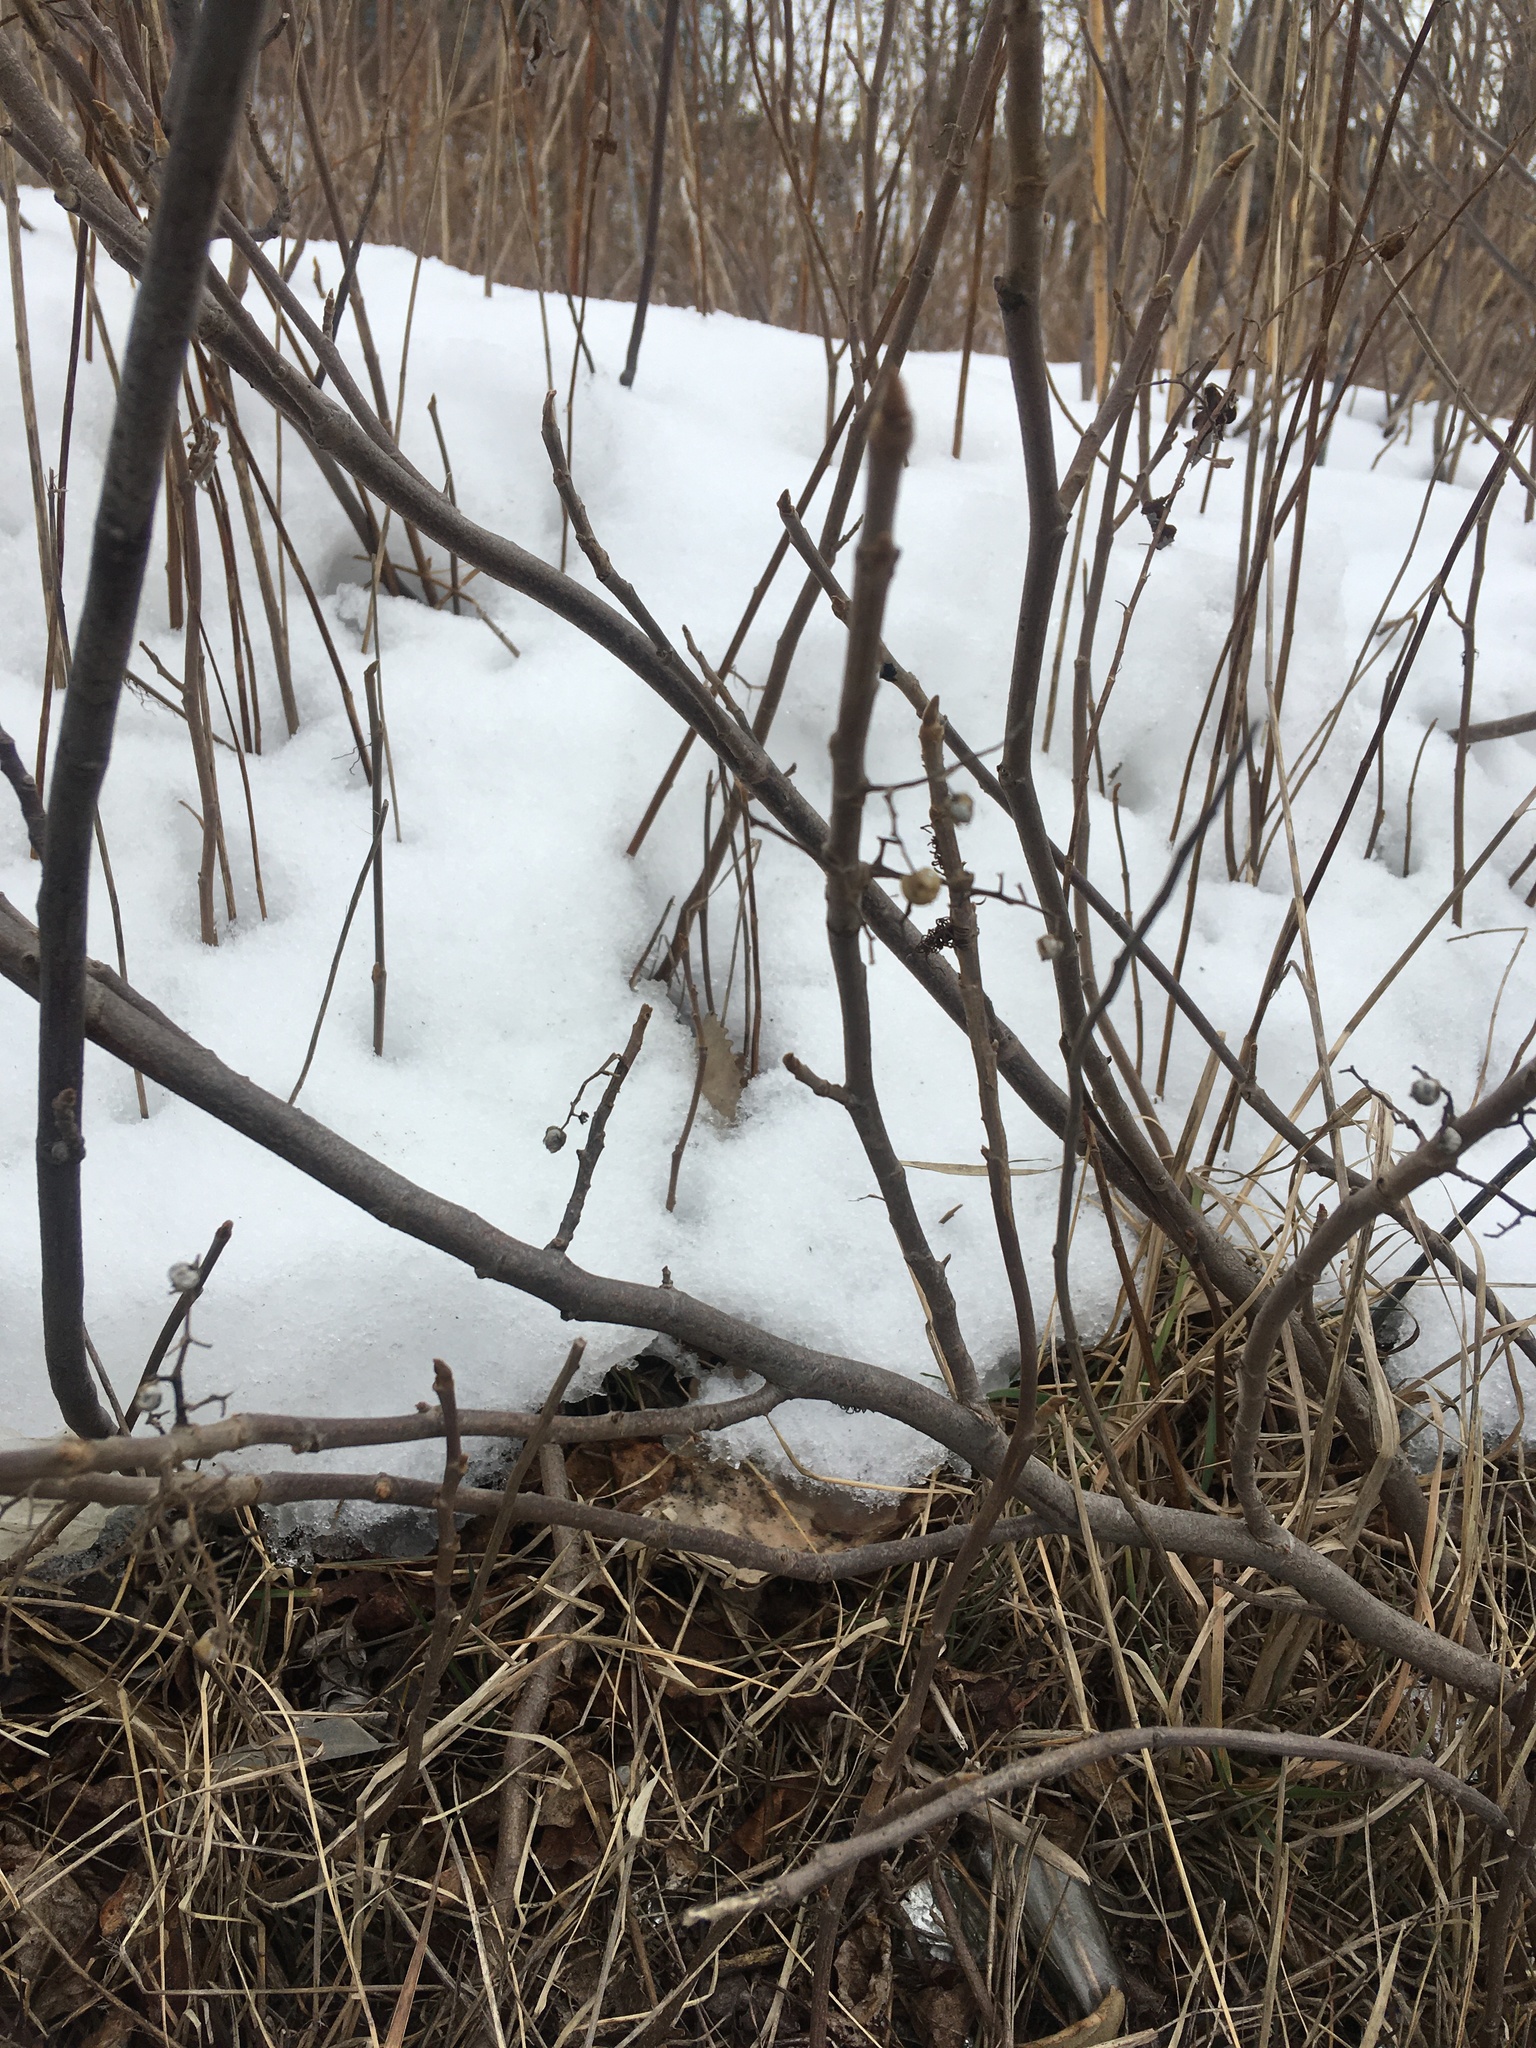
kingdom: Plantae
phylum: Tracheophyta
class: Magnoliopsida
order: Sapindales
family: Anacardiaceae
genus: Toxicodendron
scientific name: Toxicodendron radicans
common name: Poison ivy
